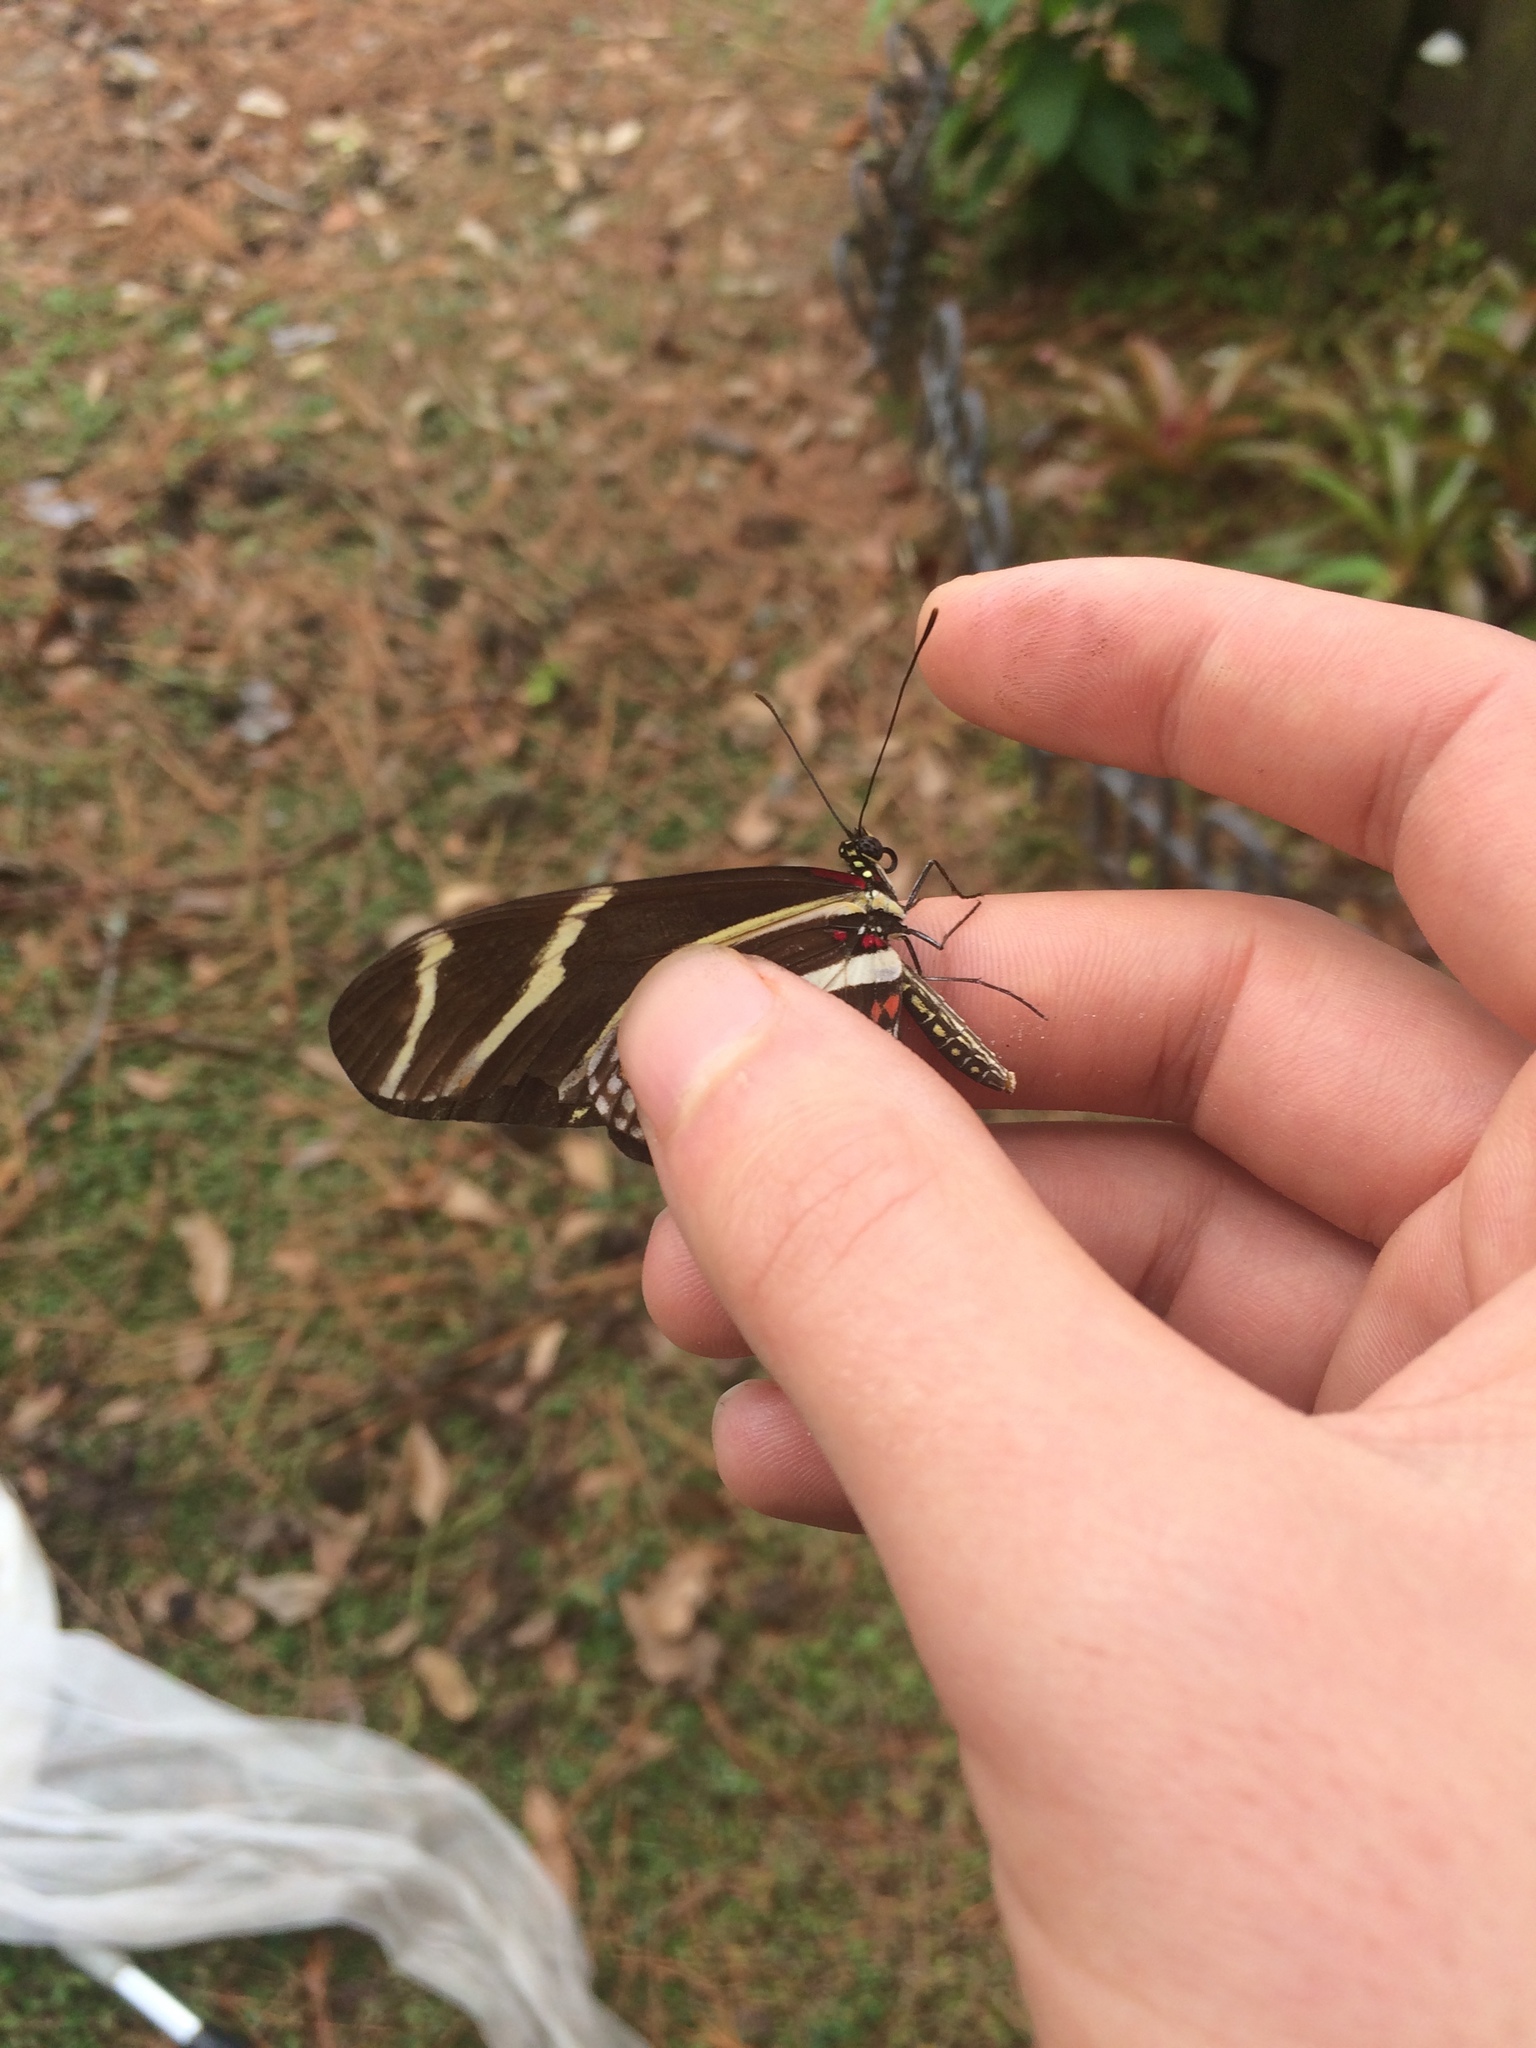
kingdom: Animalia
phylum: Arthropoda
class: Insecta
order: Lepidoptera
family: Nymphalidae
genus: Heliconius
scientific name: Heliconius charithonia
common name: Zebra long wing
